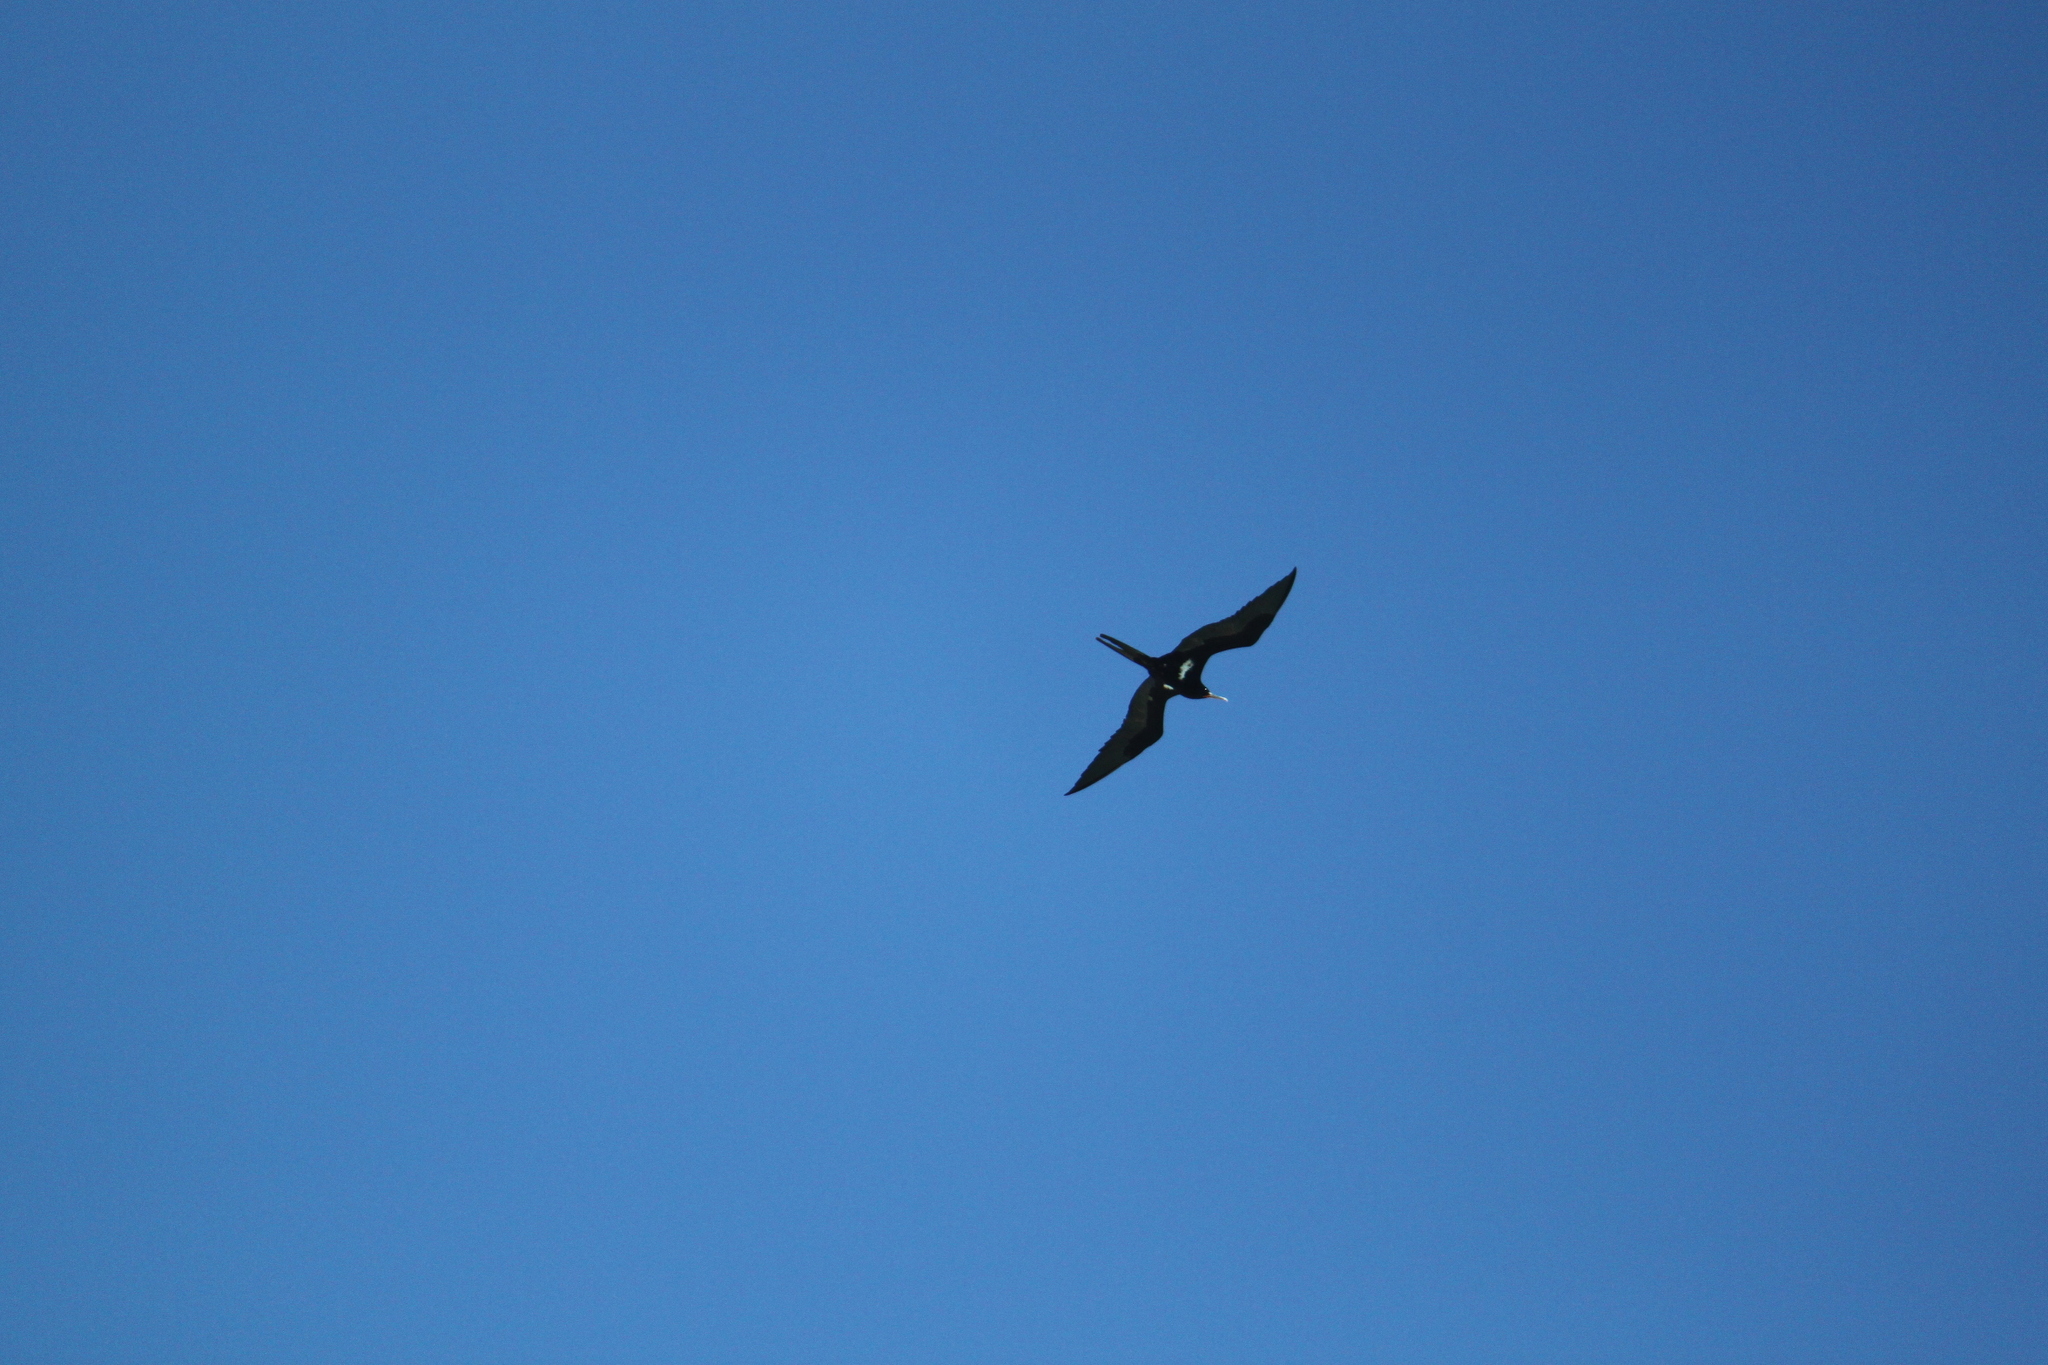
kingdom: Animalia
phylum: Chordata
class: Aves
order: Suliformes
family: Fregatidae
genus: Fregata
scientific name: Fregata ariel
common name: Lesser frigatebird
